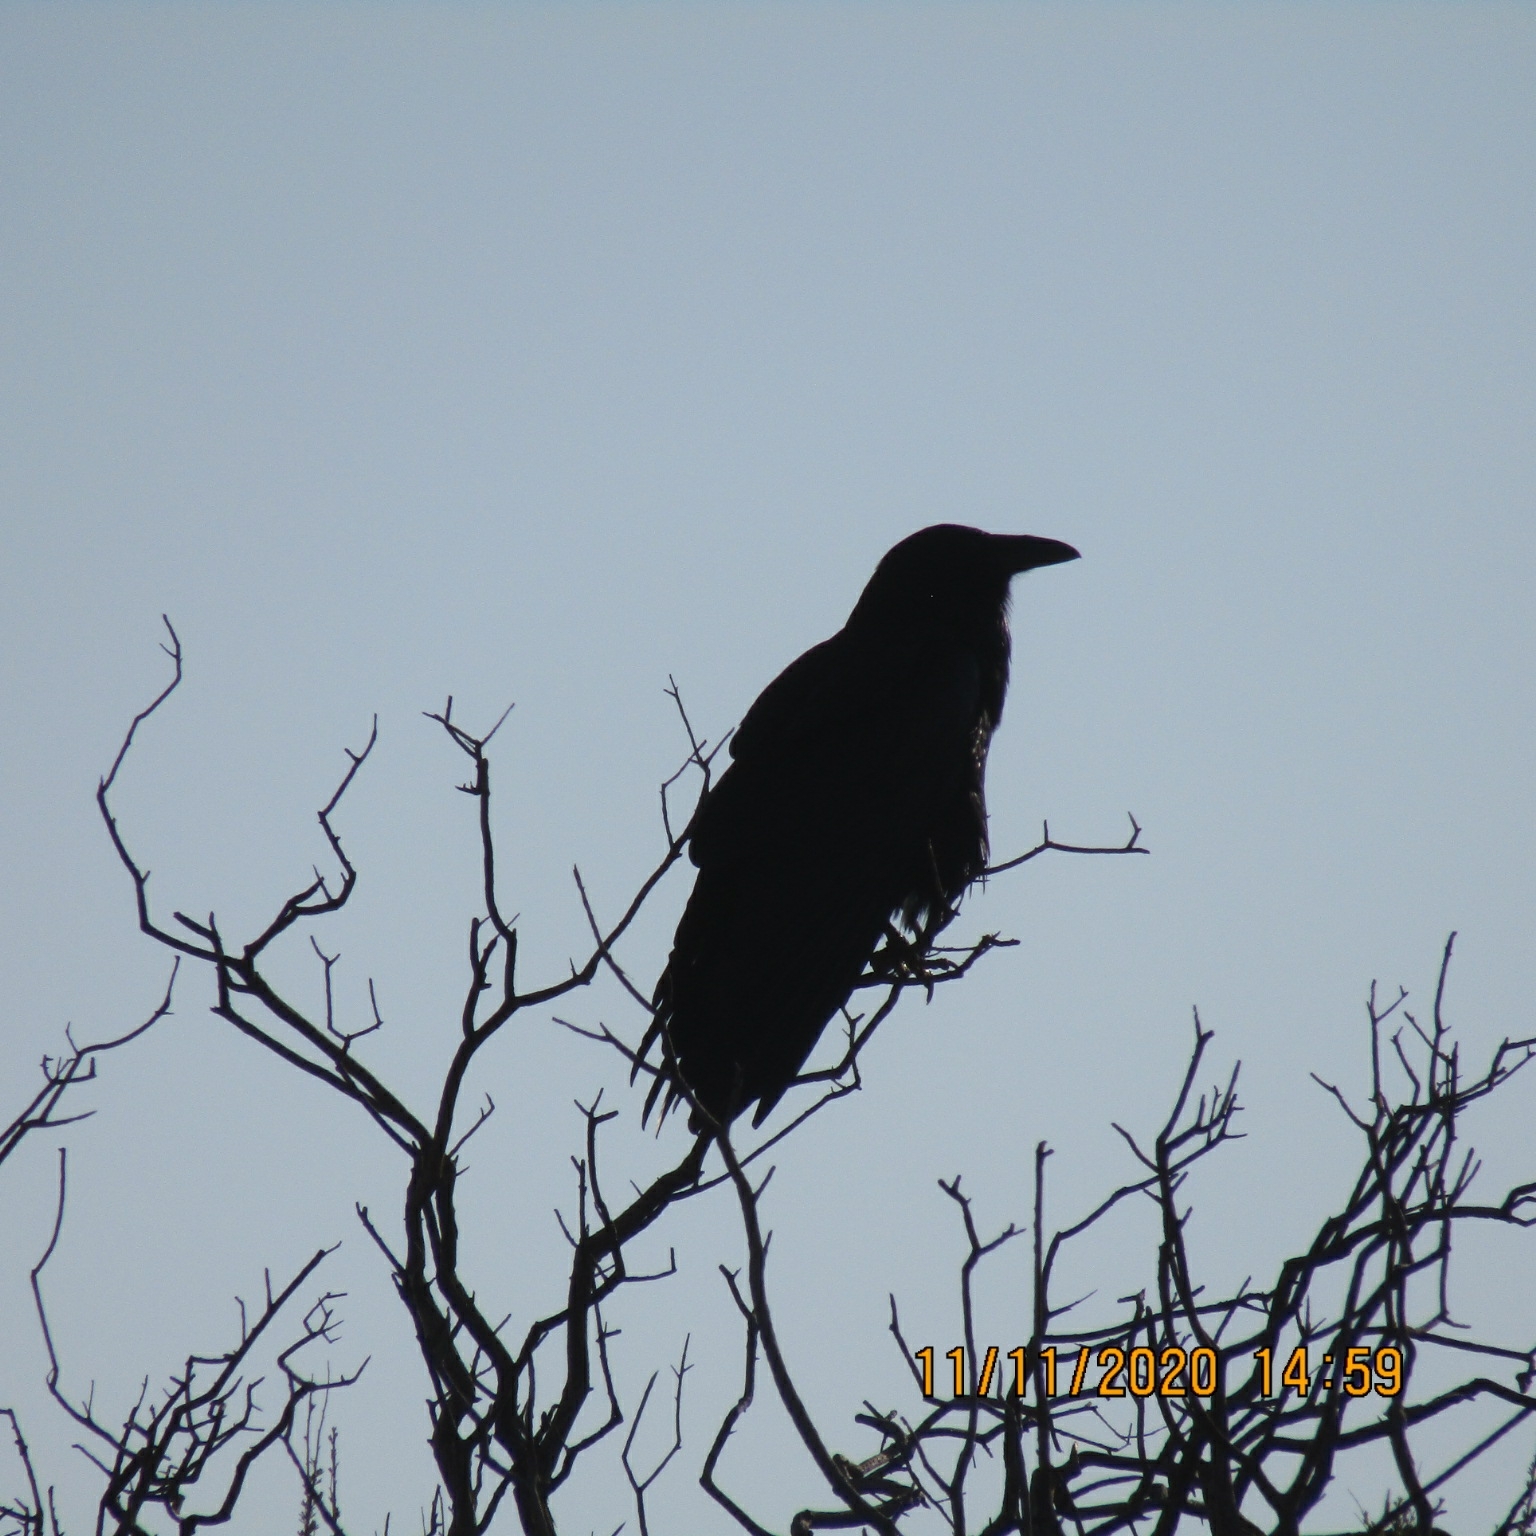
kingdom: Animalia
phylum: Chordata
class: Aves
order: Passeriformes
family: Corvidae
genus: Corvus
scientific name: Corvus corax
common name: Common raven
